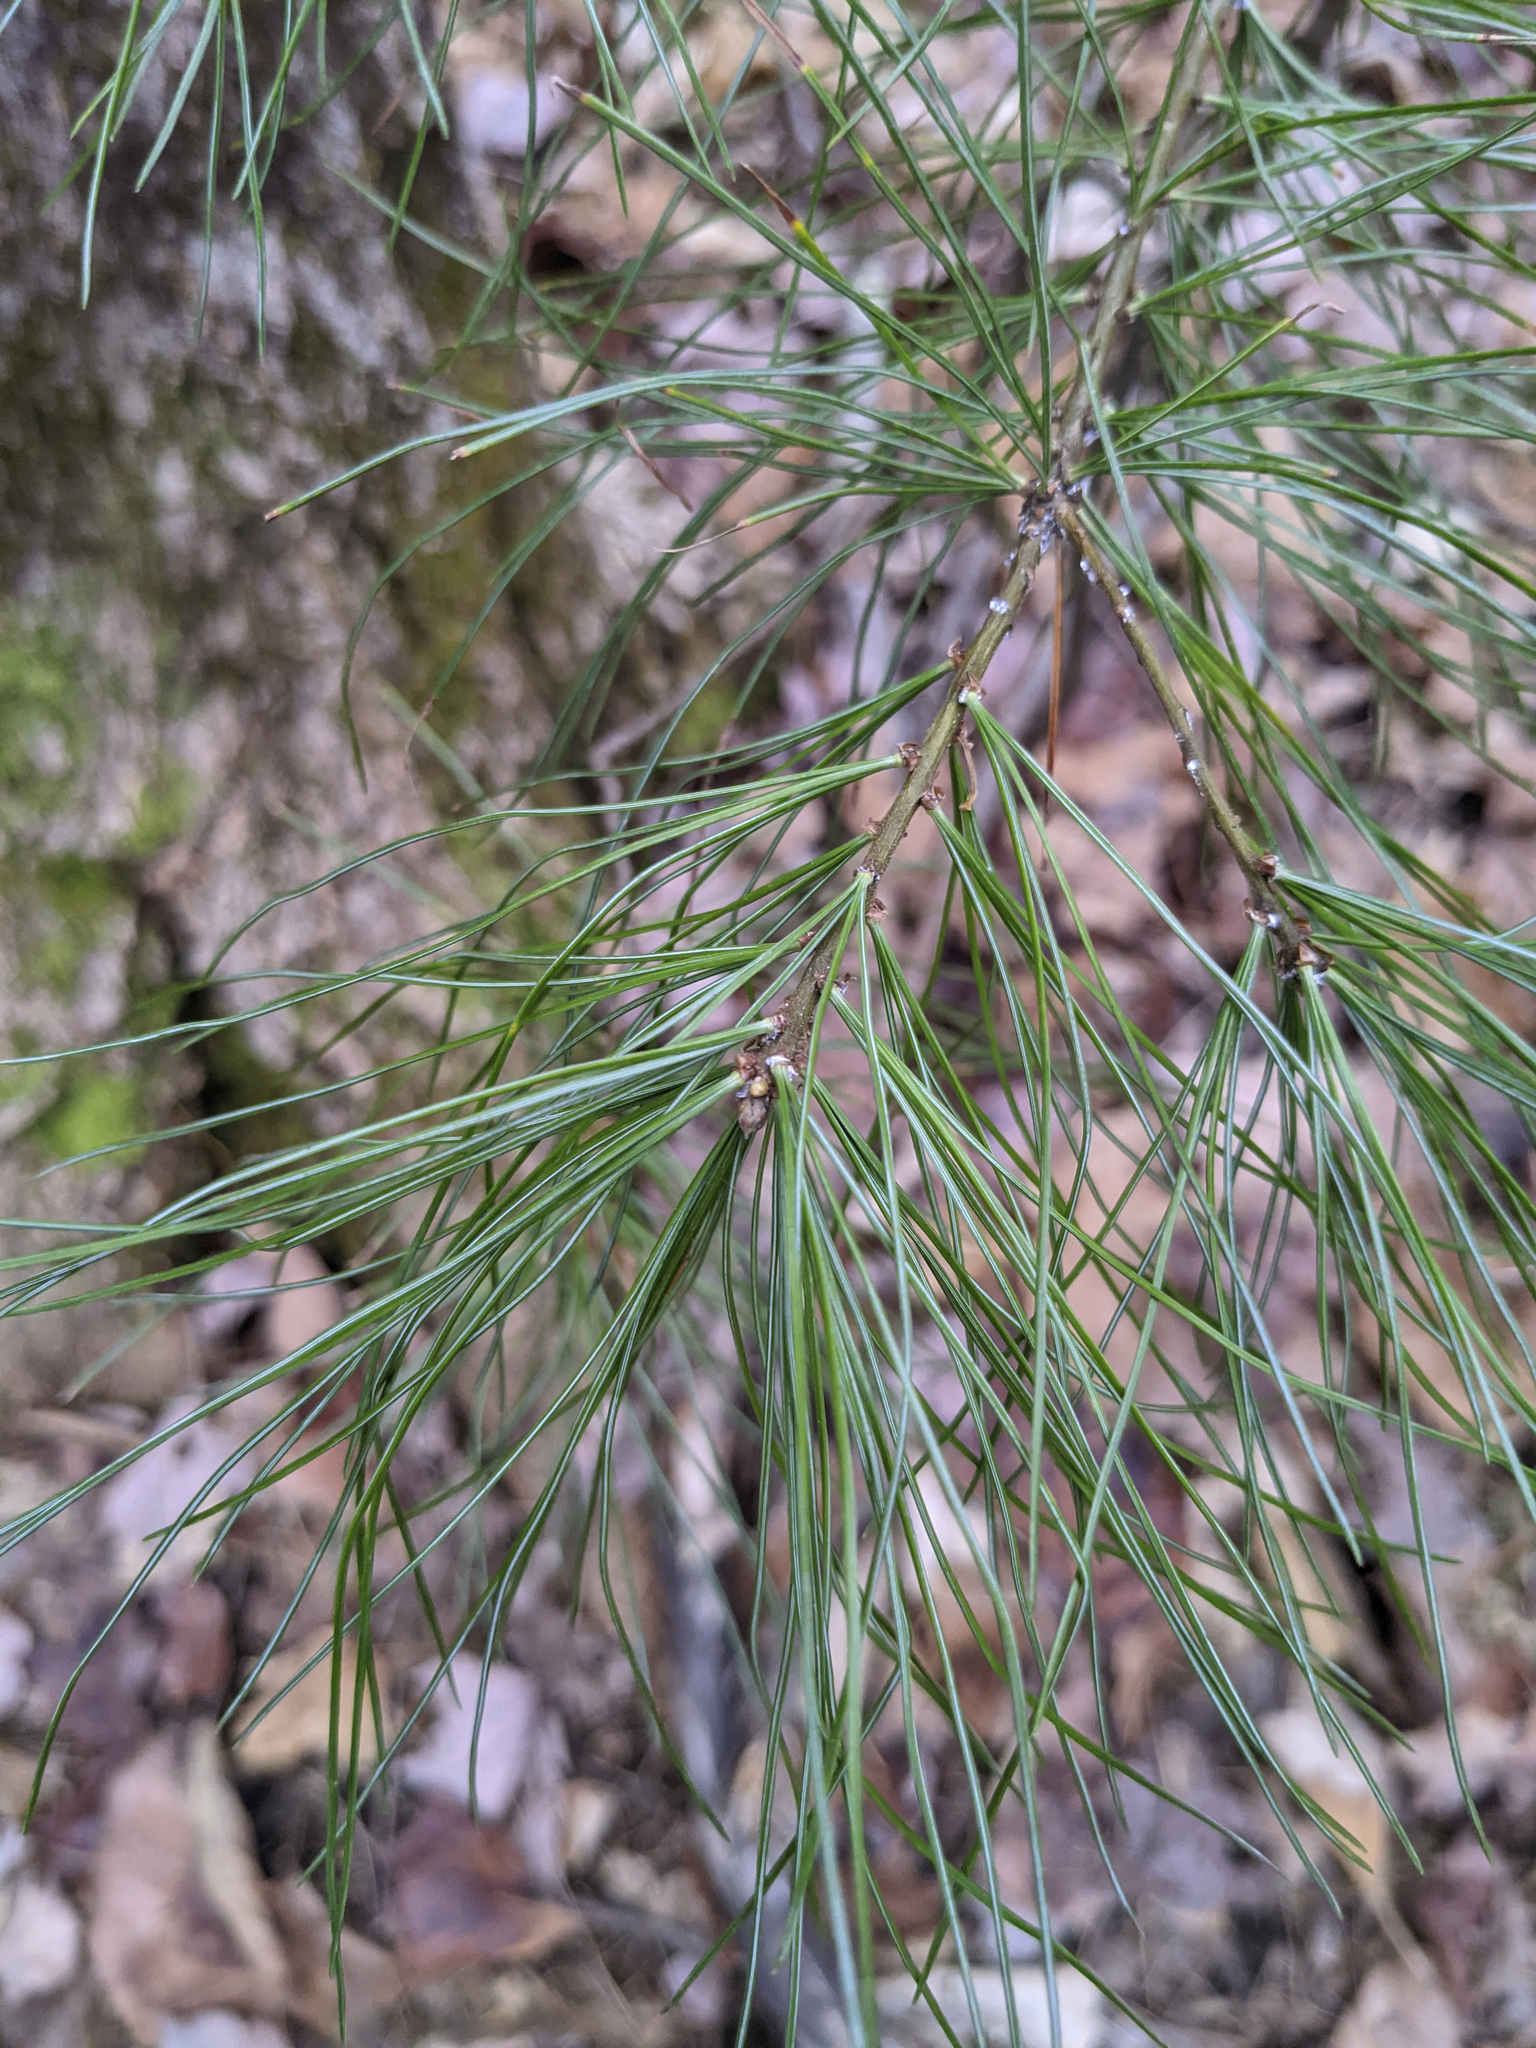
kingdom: Plantae
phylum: Tracheophyta
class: Pinopsida
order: Pinales
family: Pinaceae
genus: Pinus
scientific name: Pinus strobus
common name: Weymouth pine
